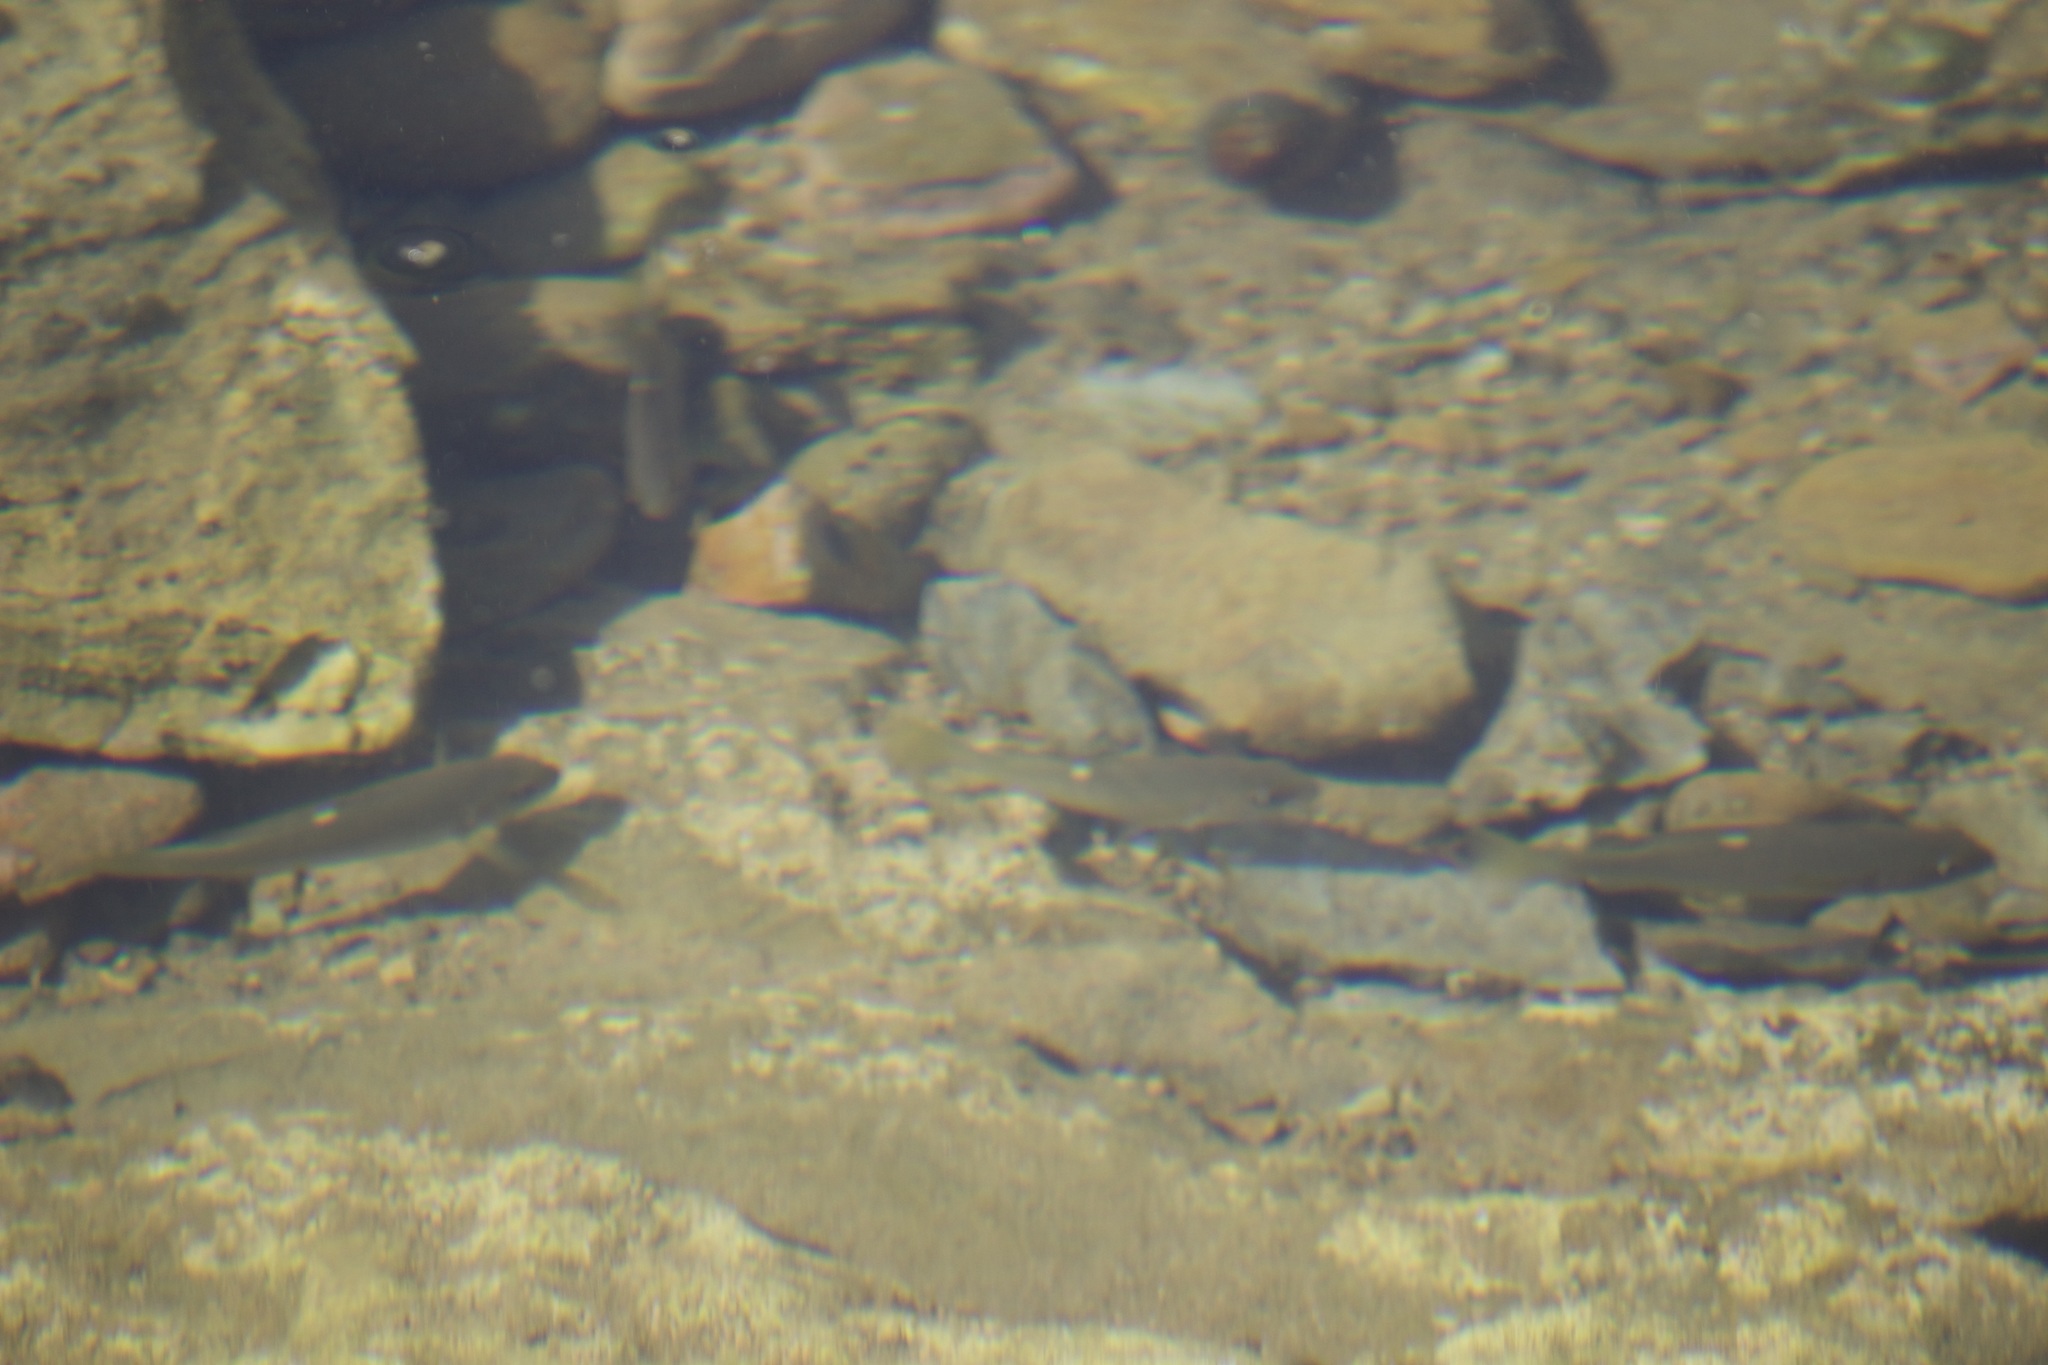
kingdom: Animalia
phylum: Chordata
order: Perciformes
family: Kyphosidae
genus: Girella
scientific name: Girella nigricans
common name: Opaleye
